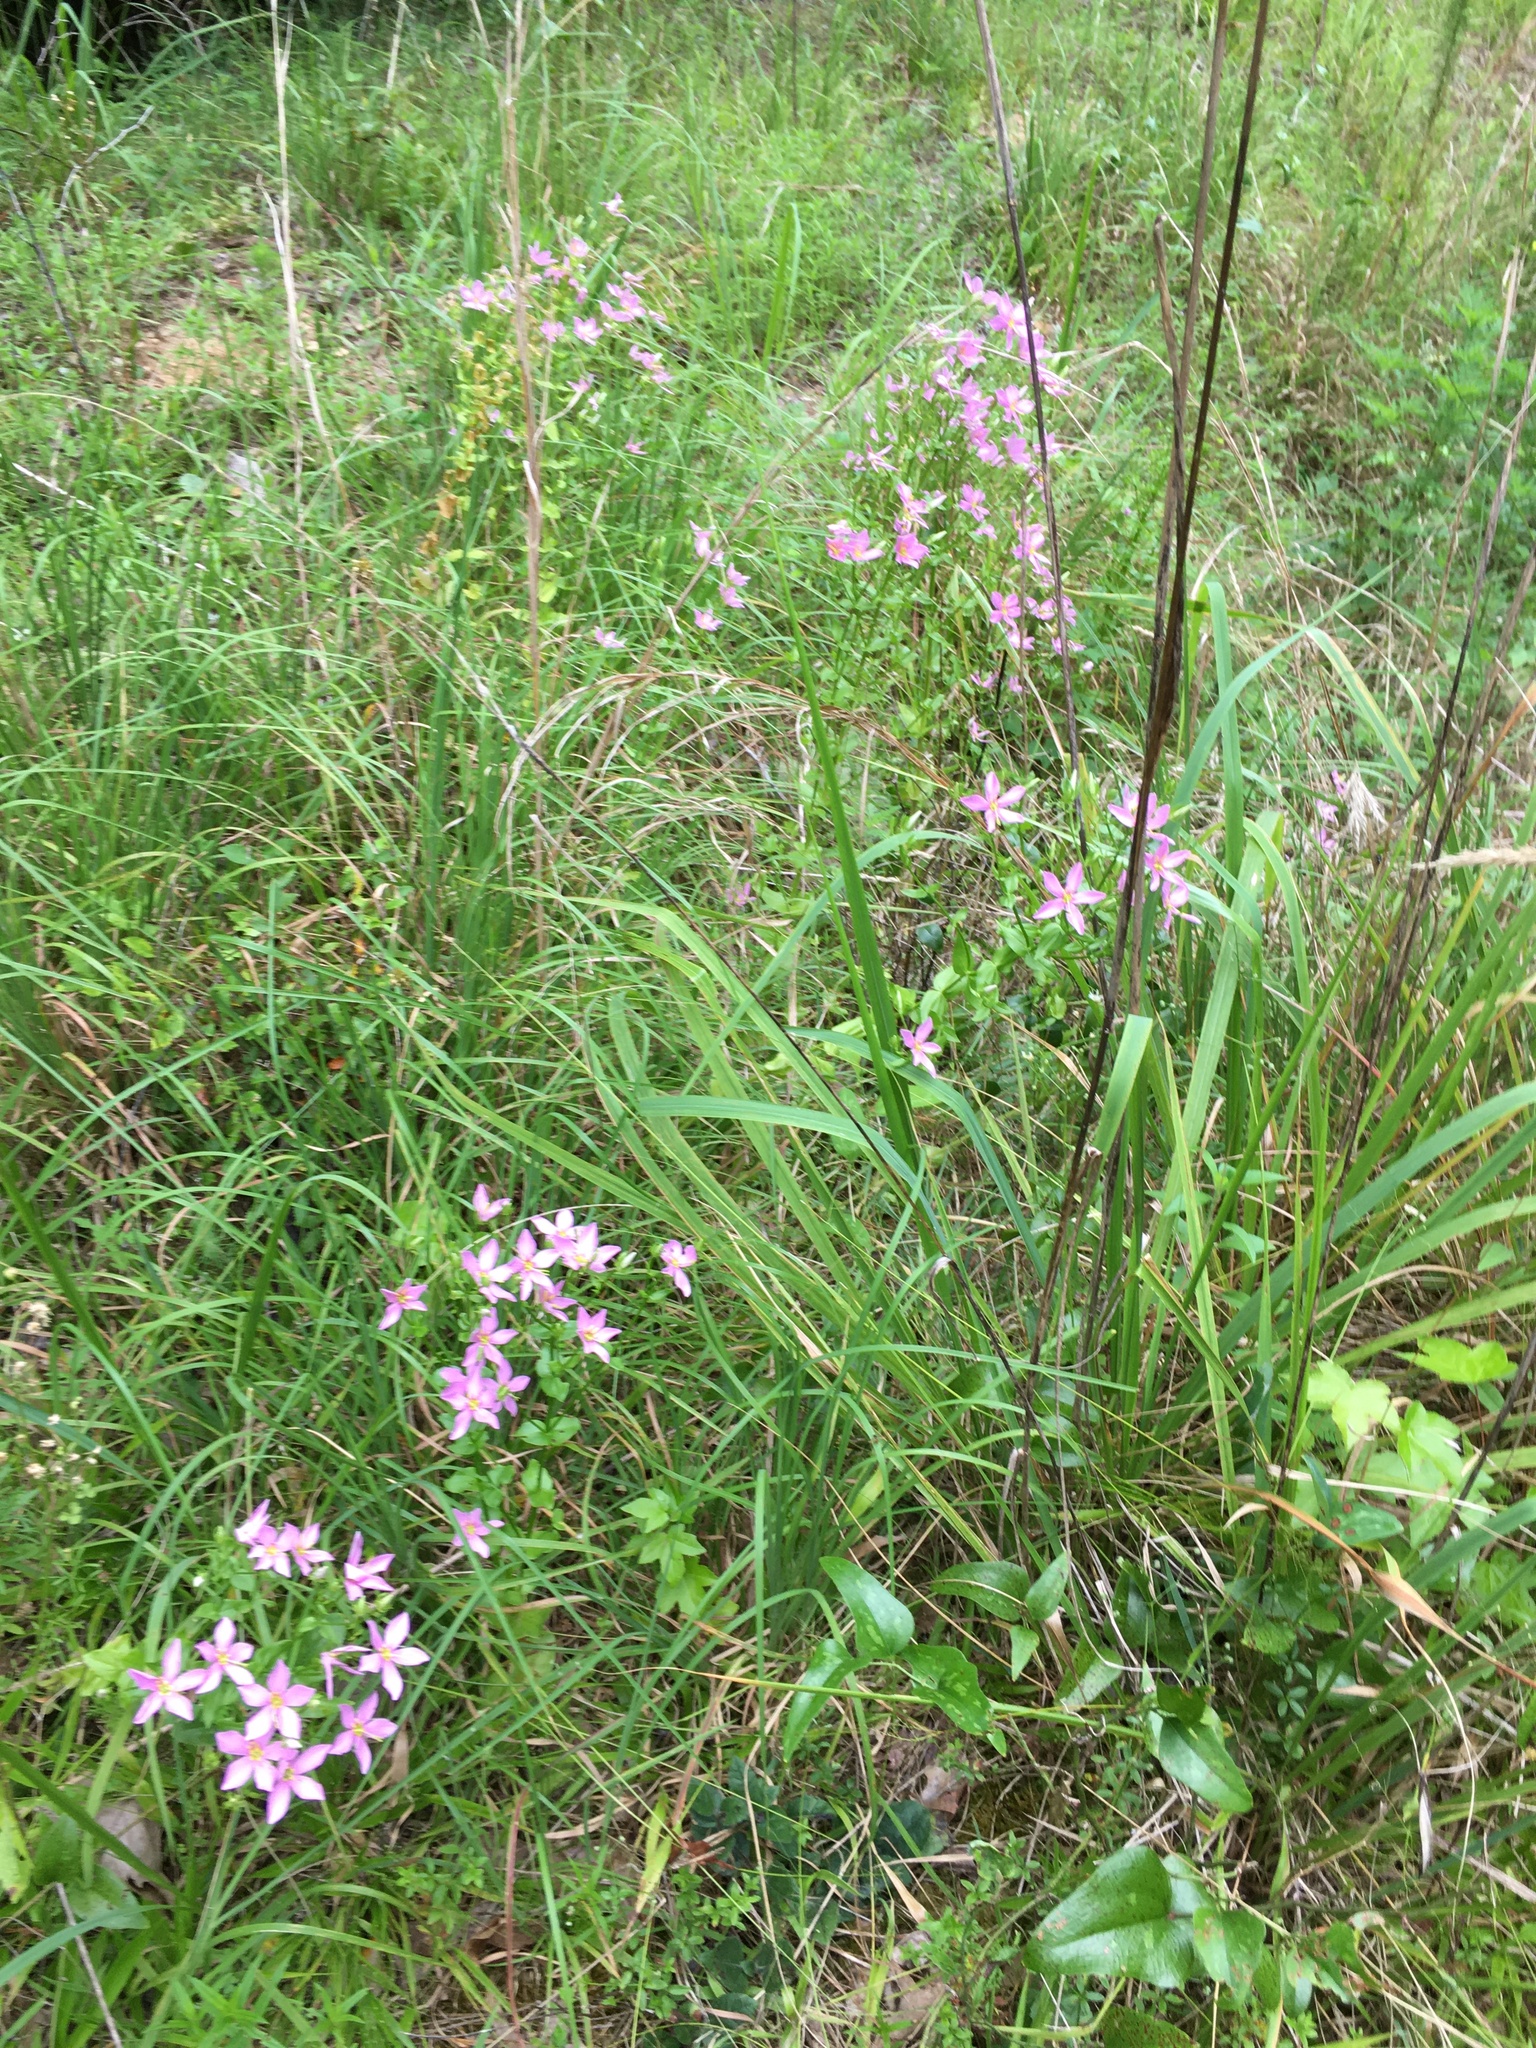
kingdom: Plantae
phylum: Tracheophyta
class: Magnoliopsida
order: Gentianales
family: Gentianaceae
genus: Sabatia
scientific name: Sabatia angularis
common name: Rose-pink
